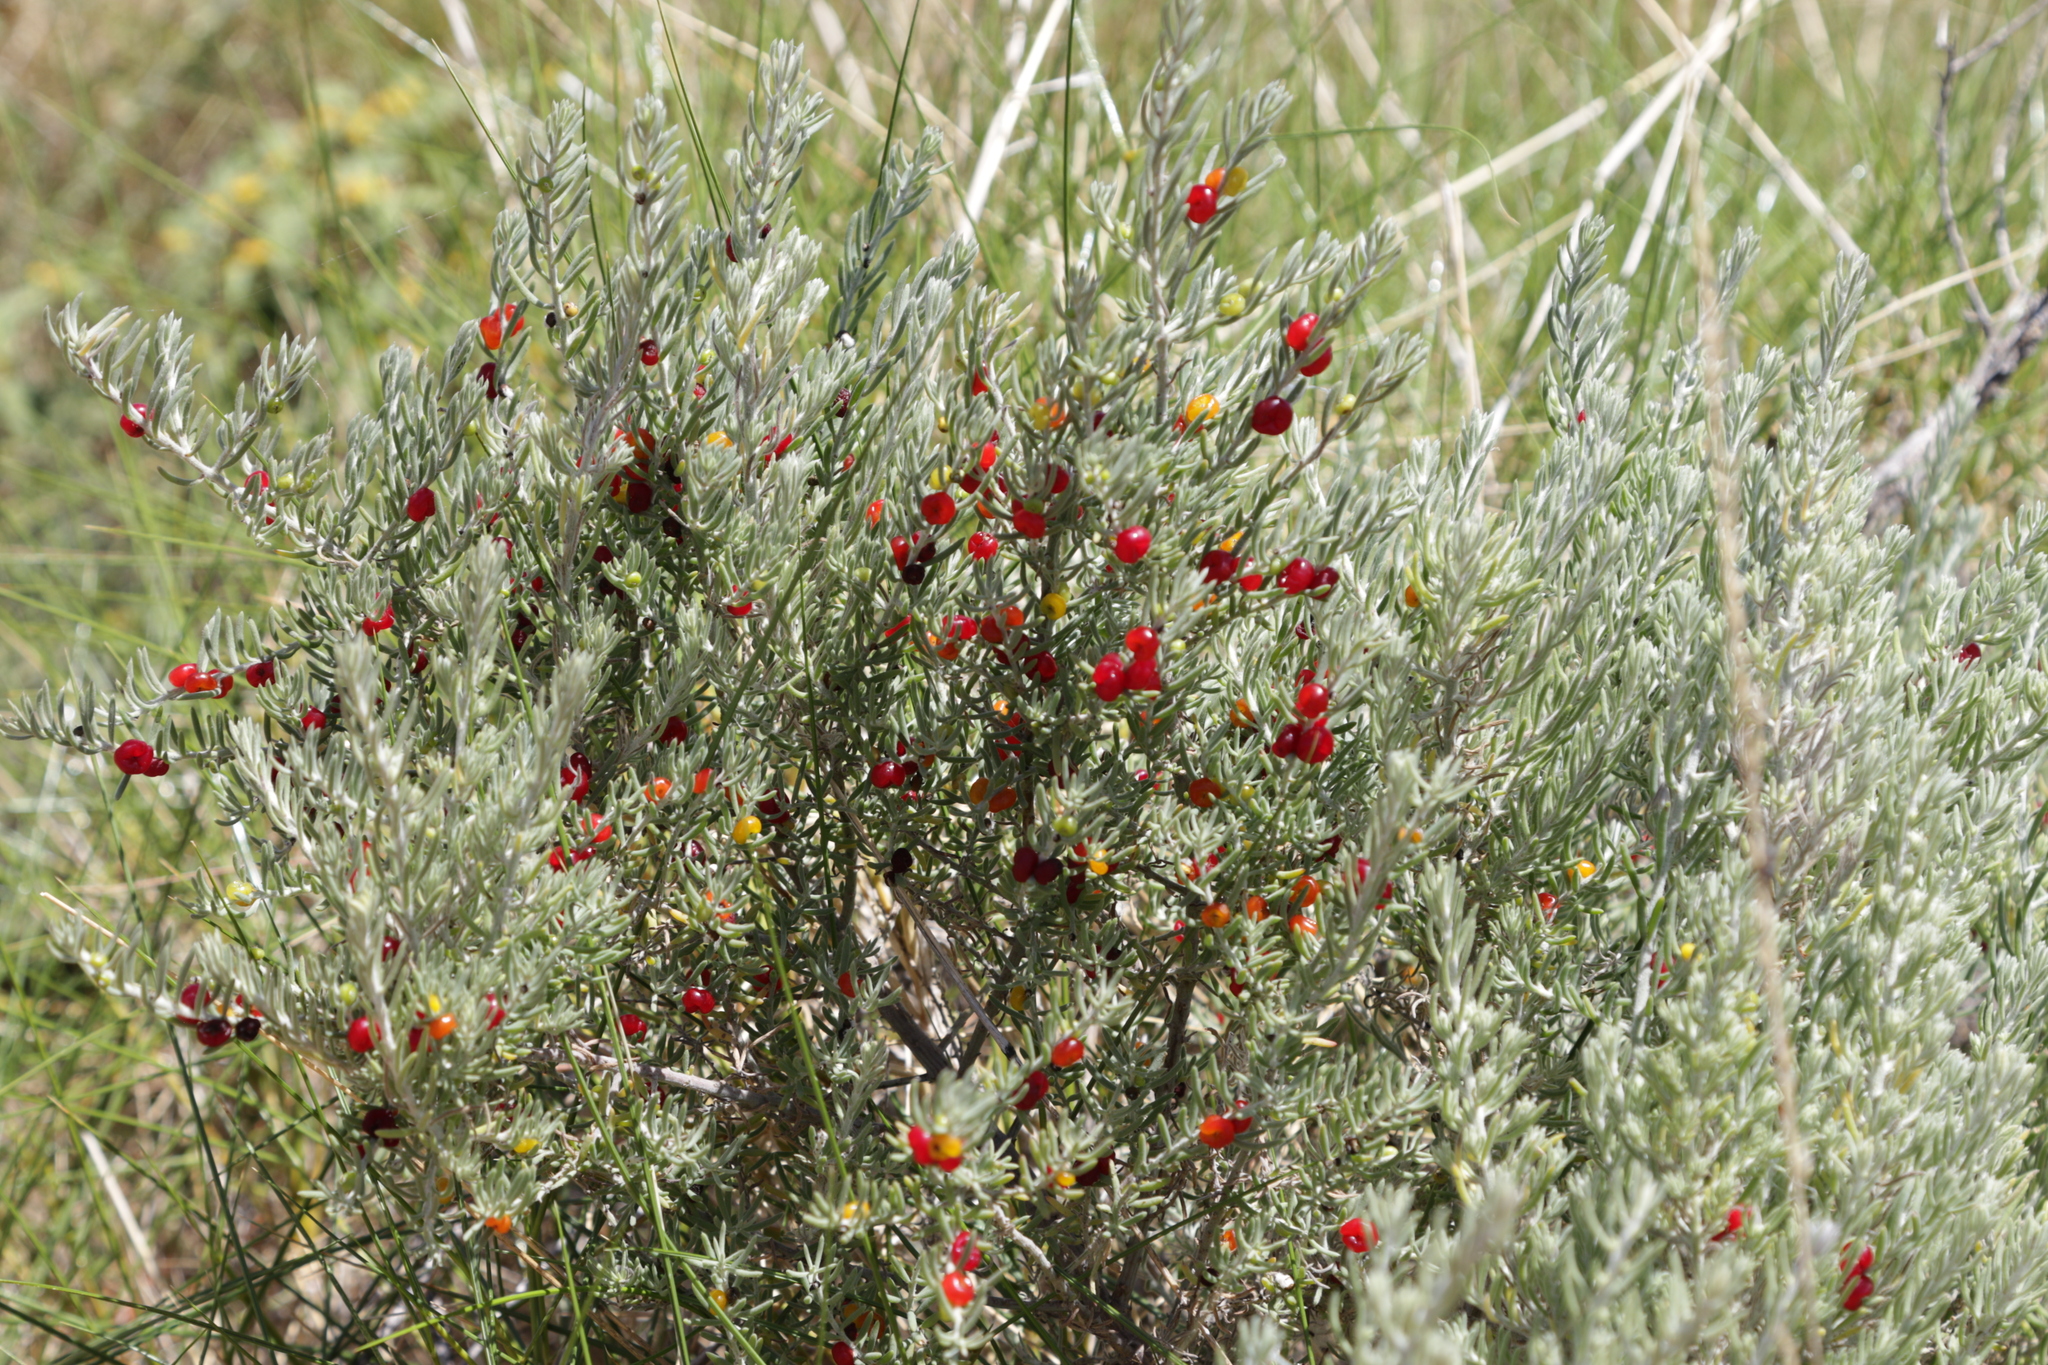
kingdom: Plantae
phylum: Tracheophyta
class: Magnoliopsida
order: Caryophyllales
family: Amaranthaceae
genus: Enchylaena
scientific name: Enchylaena tomentosa
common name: Ruby saltbush
